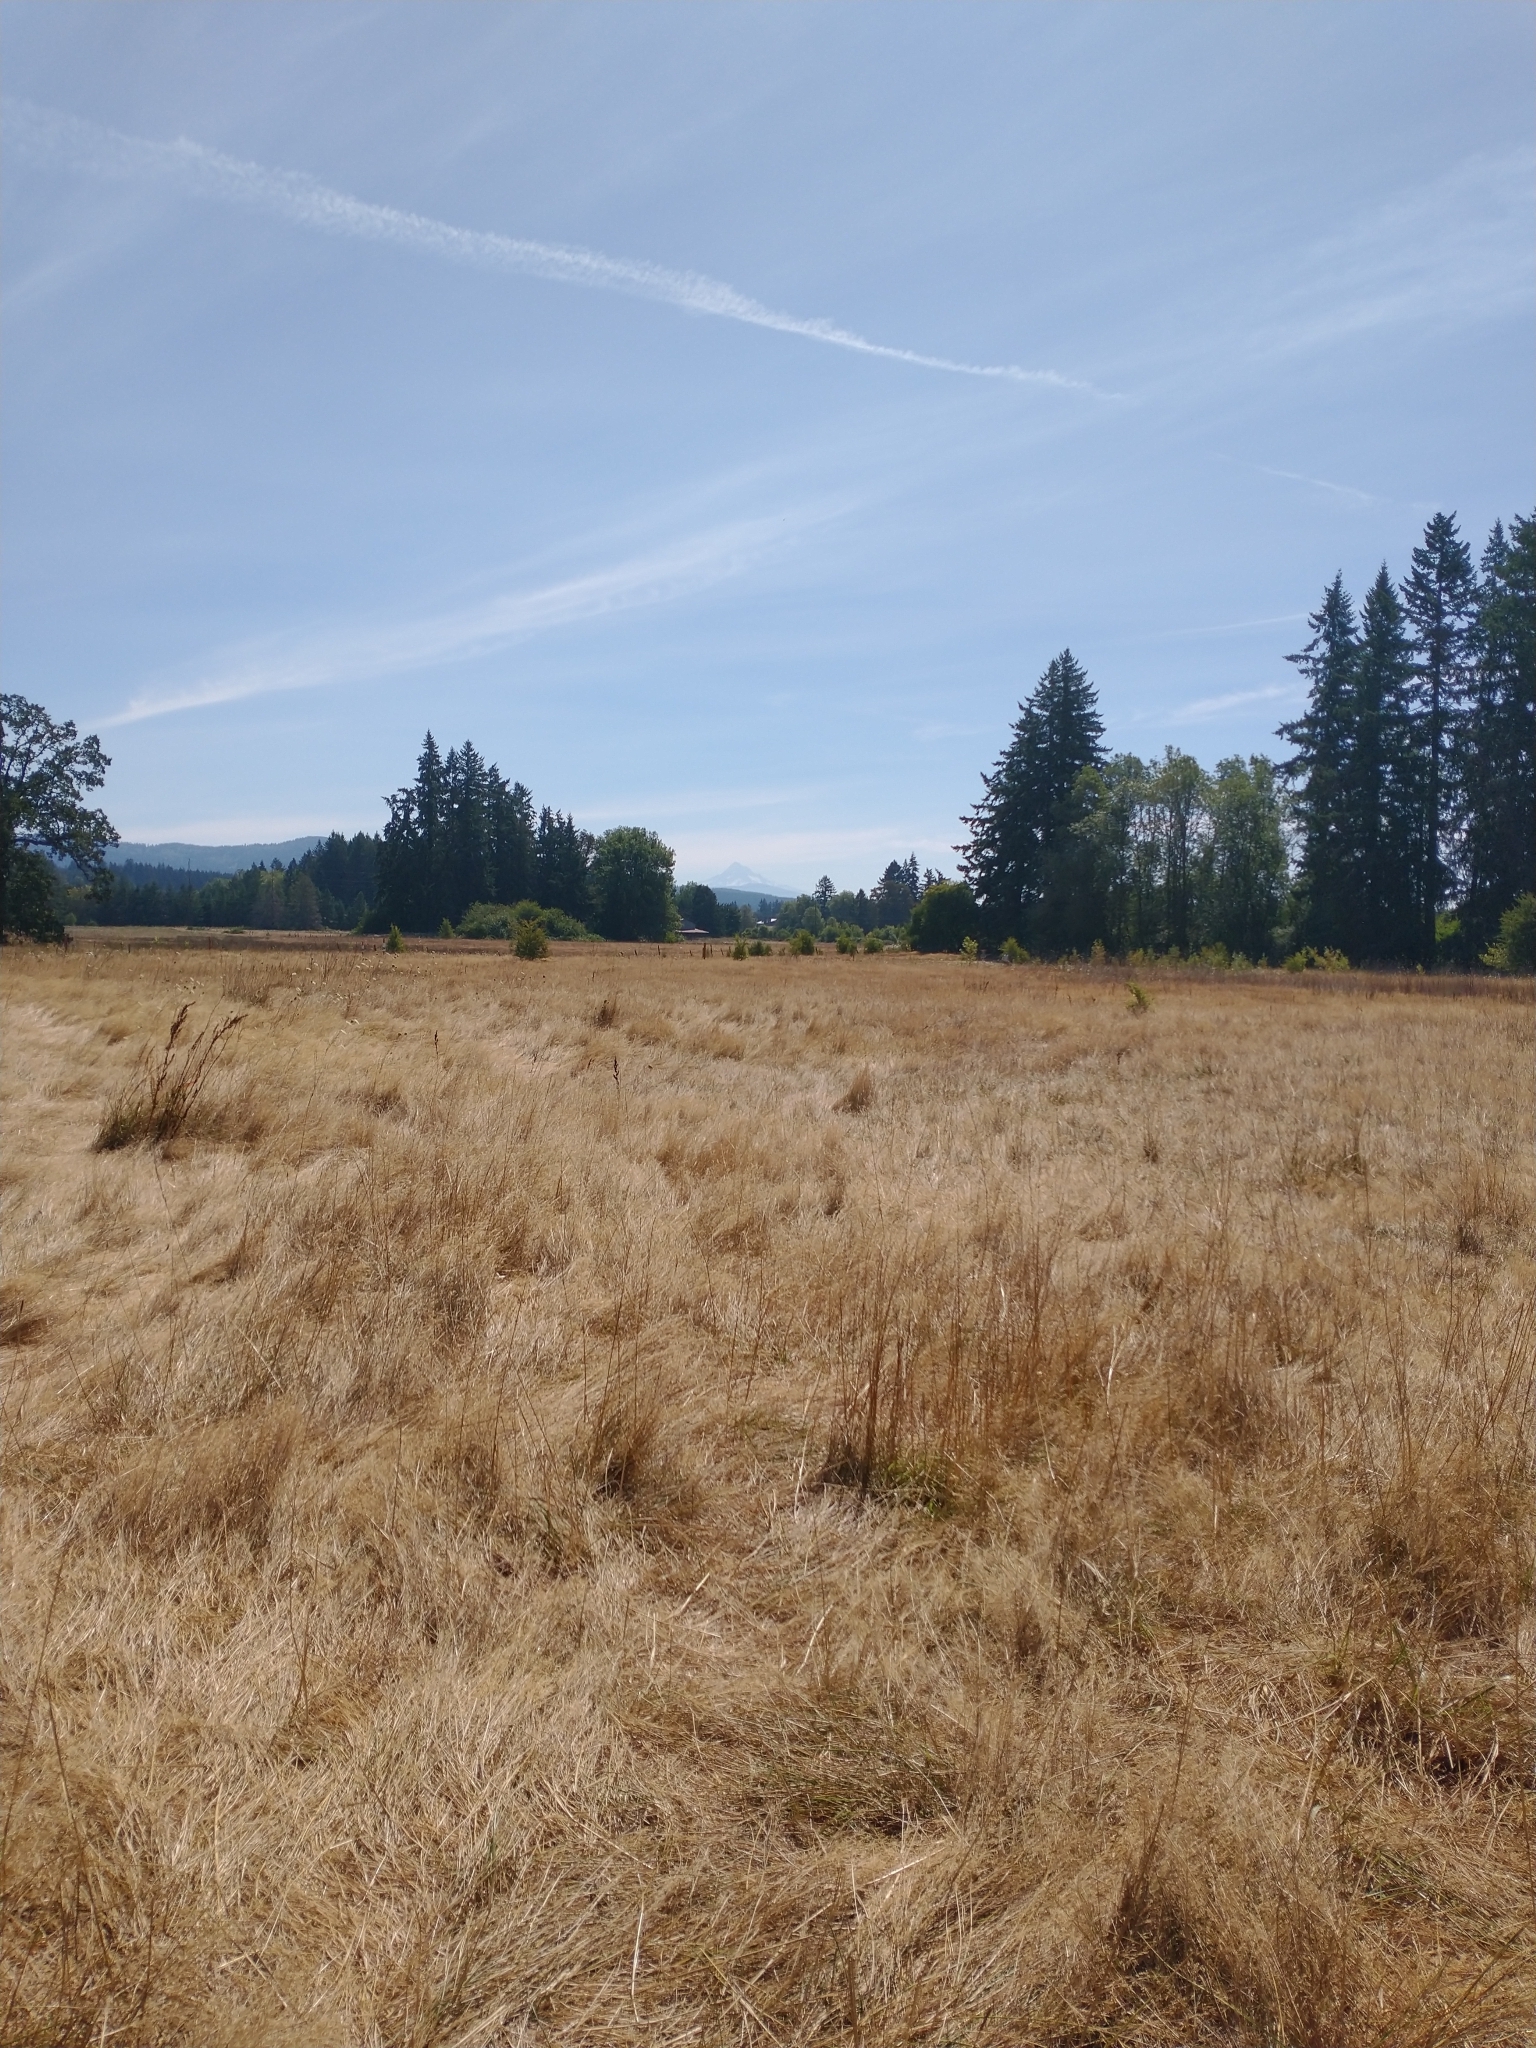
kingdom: Plantae
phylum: Tracheophyta
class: Pinopsida
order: Pinales
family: Pinaceae
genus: Pseudotsuga
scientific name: Pseudotsuga menziesii
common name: Douglas fir
